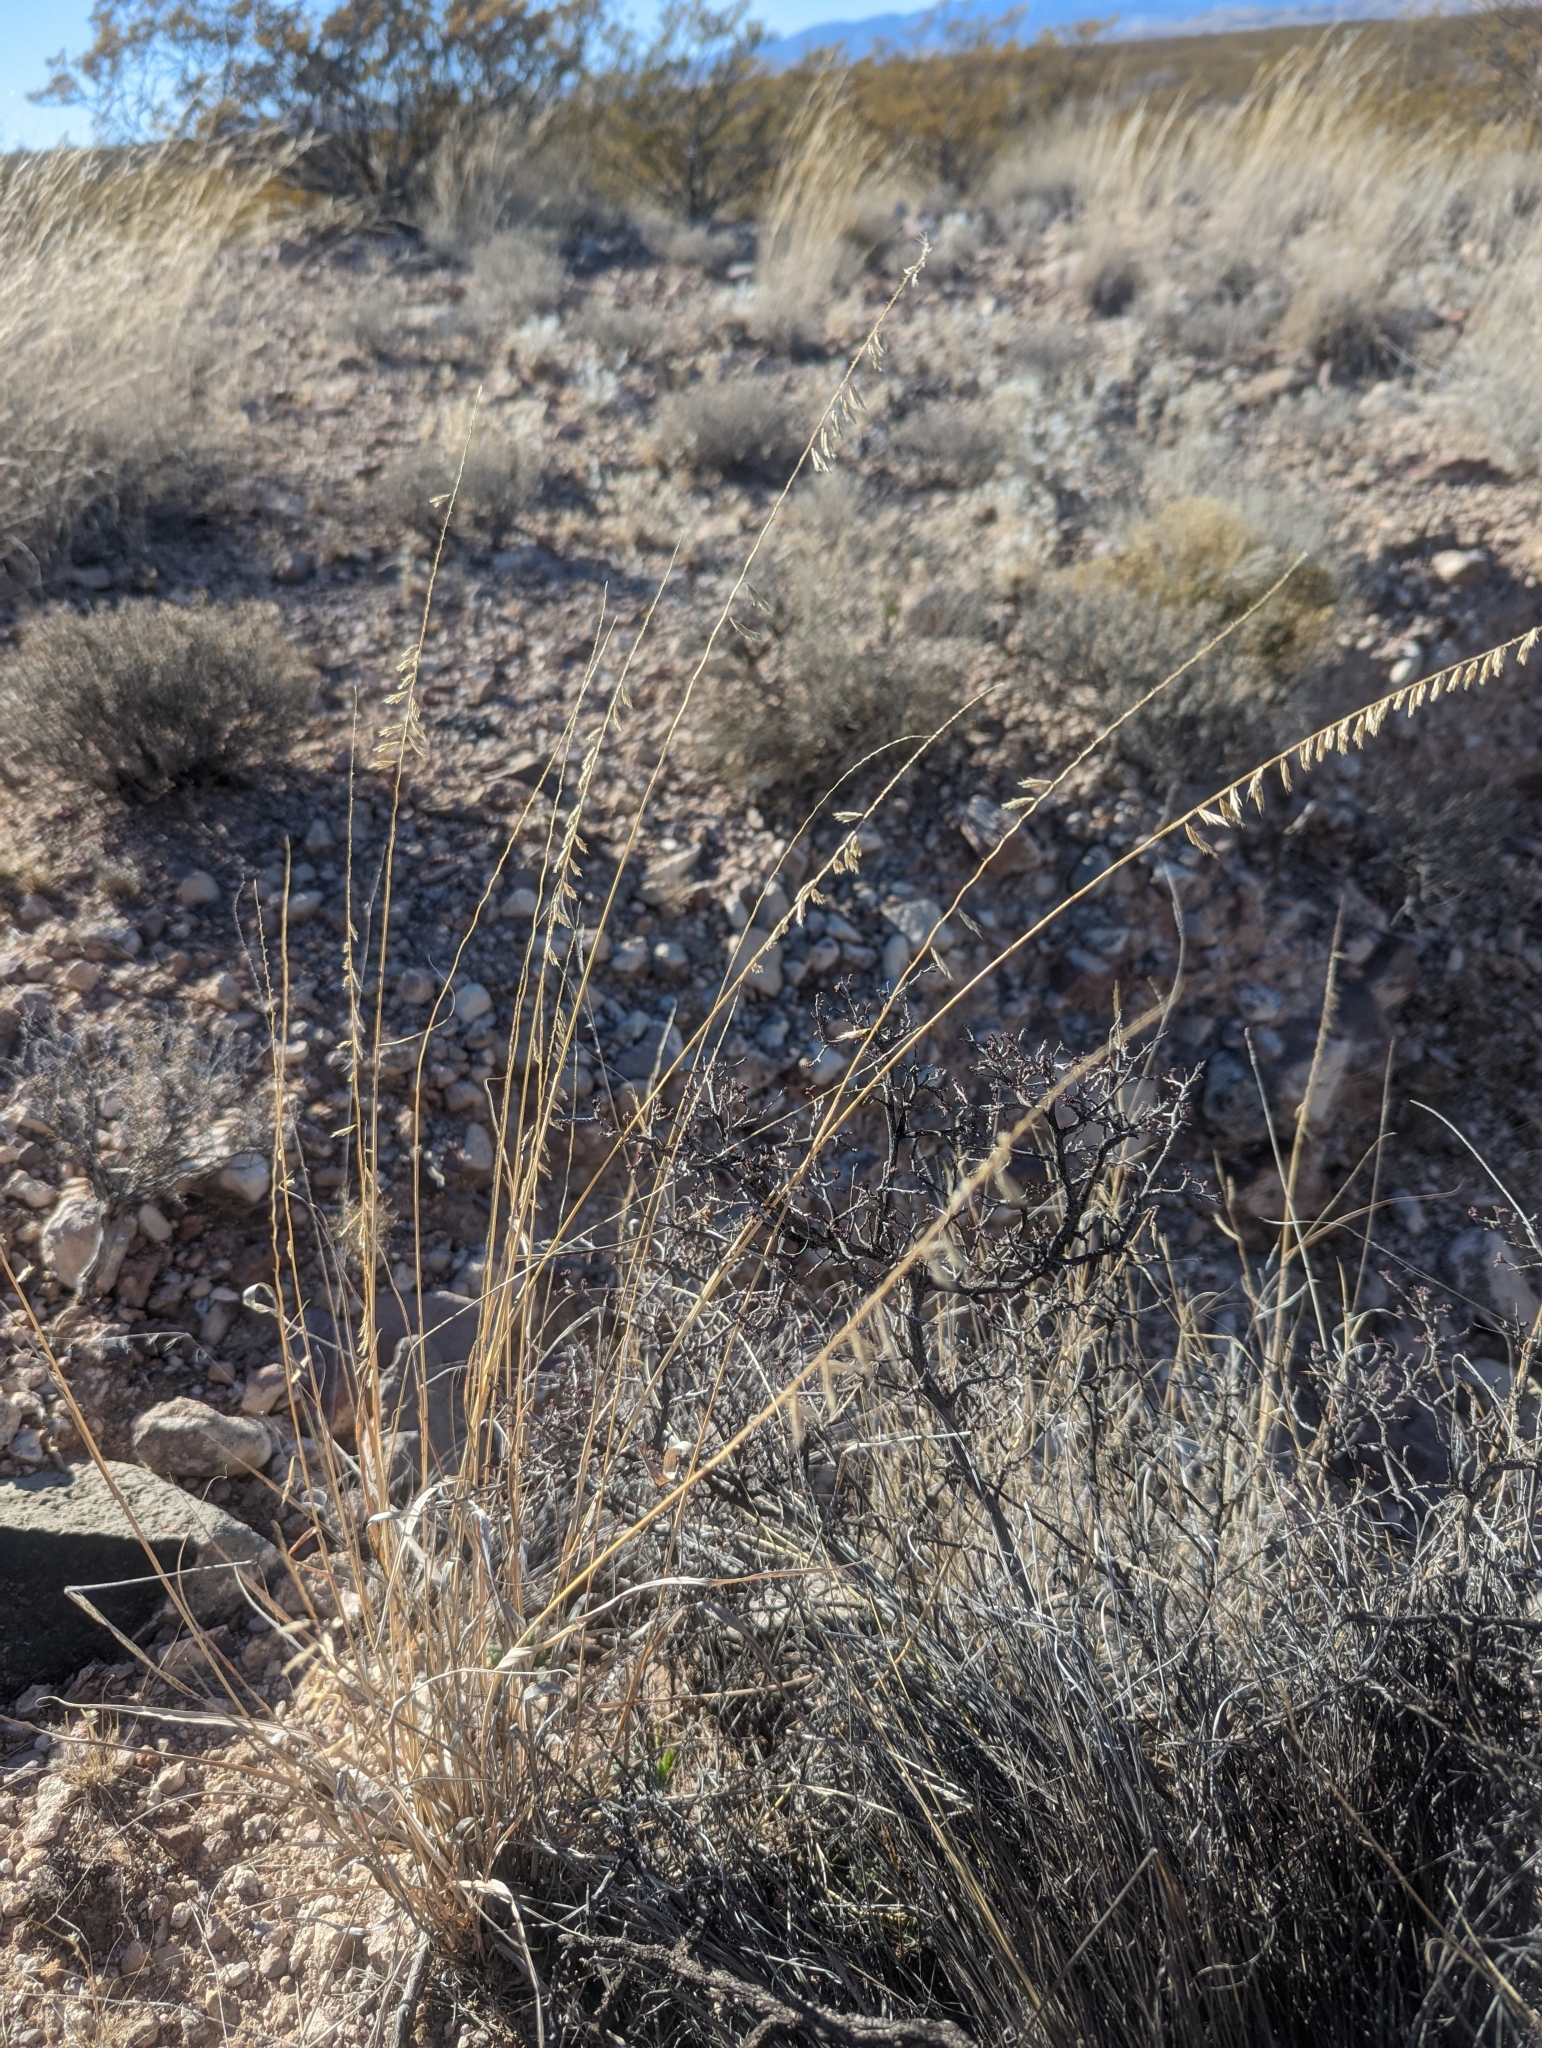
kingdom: Plantae
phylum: Tracheophyta
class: Liliopsida
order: Poales
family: Poaceae
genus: Bouteloua
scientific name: Bouteloua curtipendula
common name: Side-oats grama
